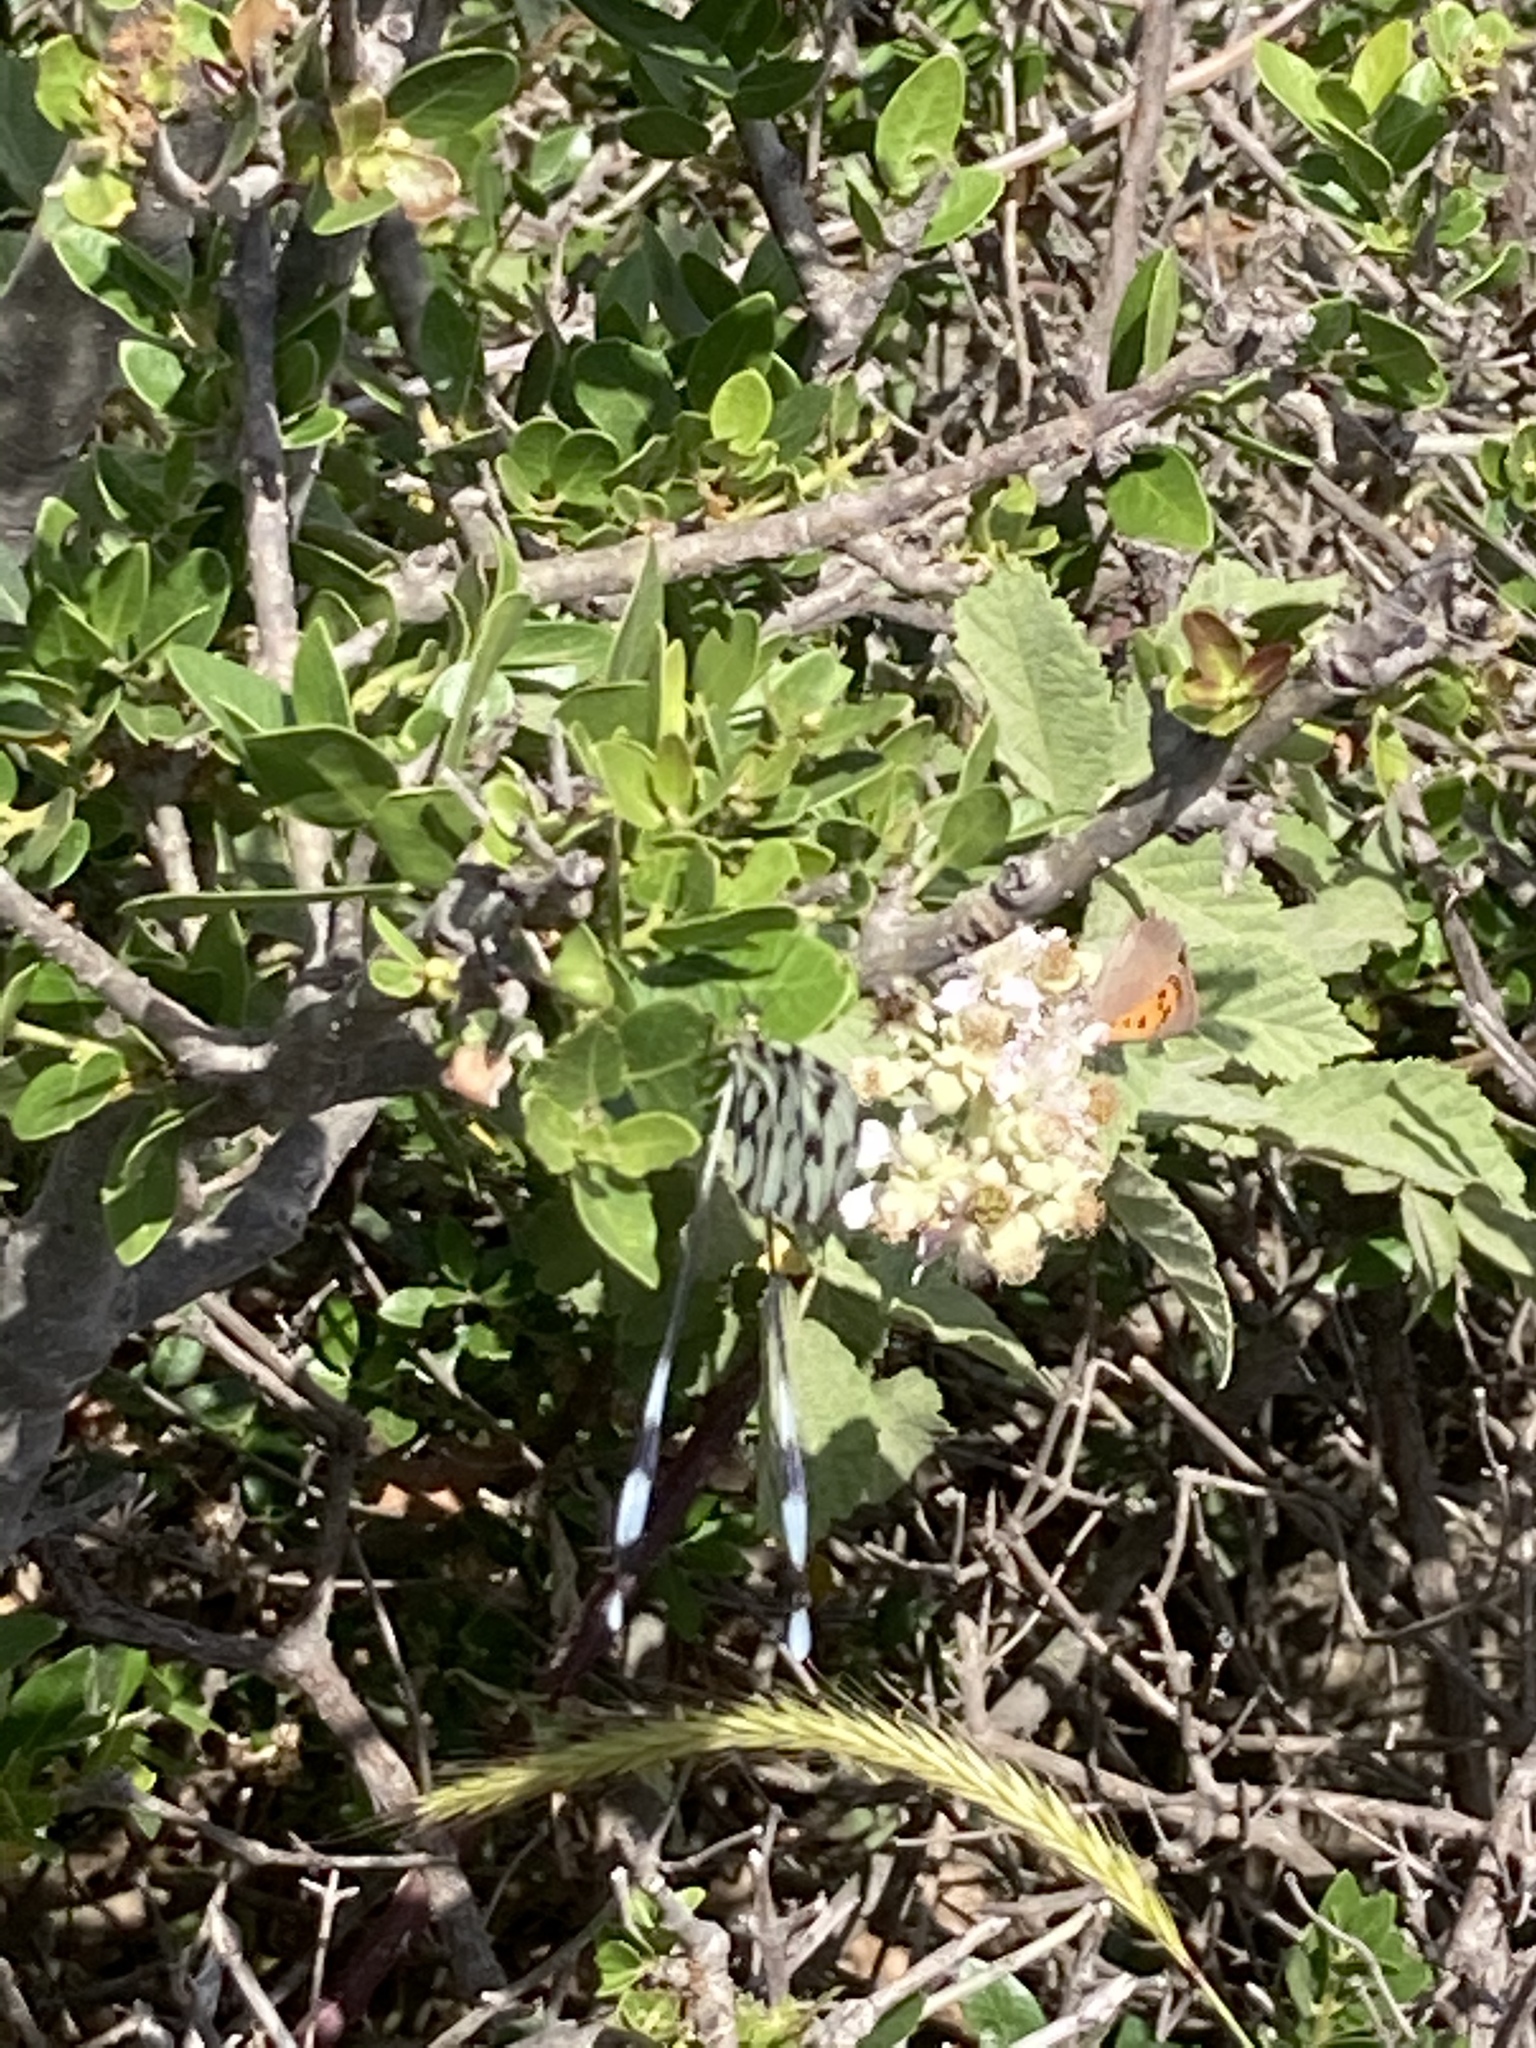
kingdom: Animalia
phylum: Arthropoda
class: Insecta
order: Neuroptera
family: Nemopteridae
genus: Nemoptera
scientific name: Nemoptera sinuata
